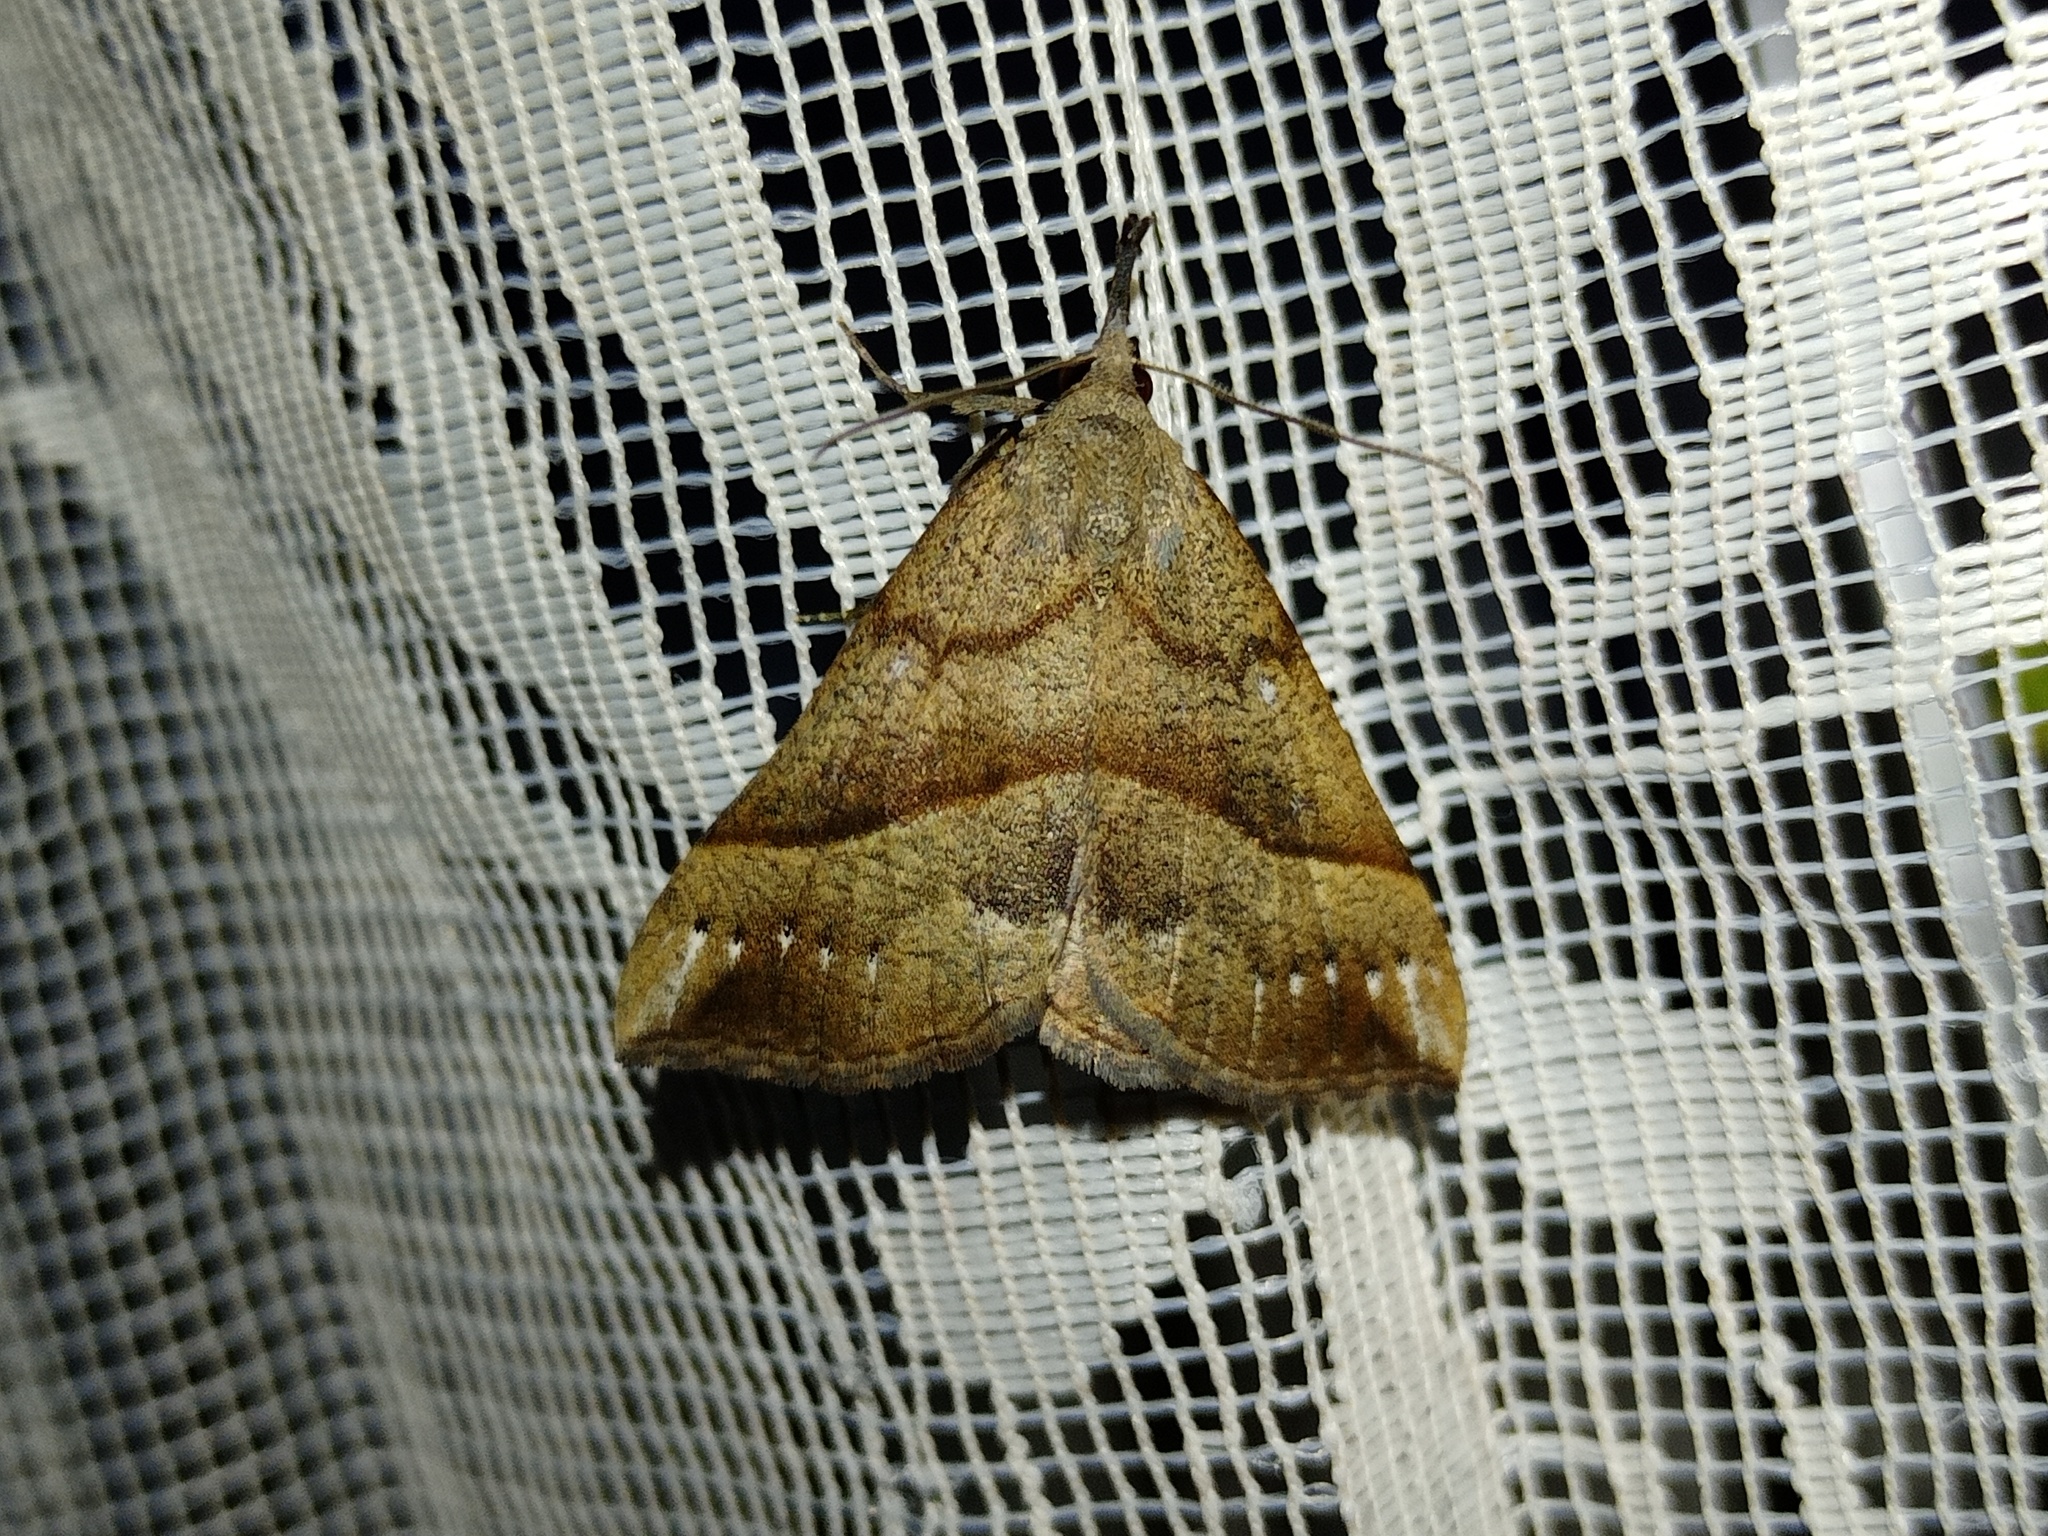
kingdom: Animalia
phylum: Arthropoda
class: Insecta
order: Lepidoptera
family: Erebidae
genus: Hypena
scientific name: Hypena proboscidalis
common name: Snout
